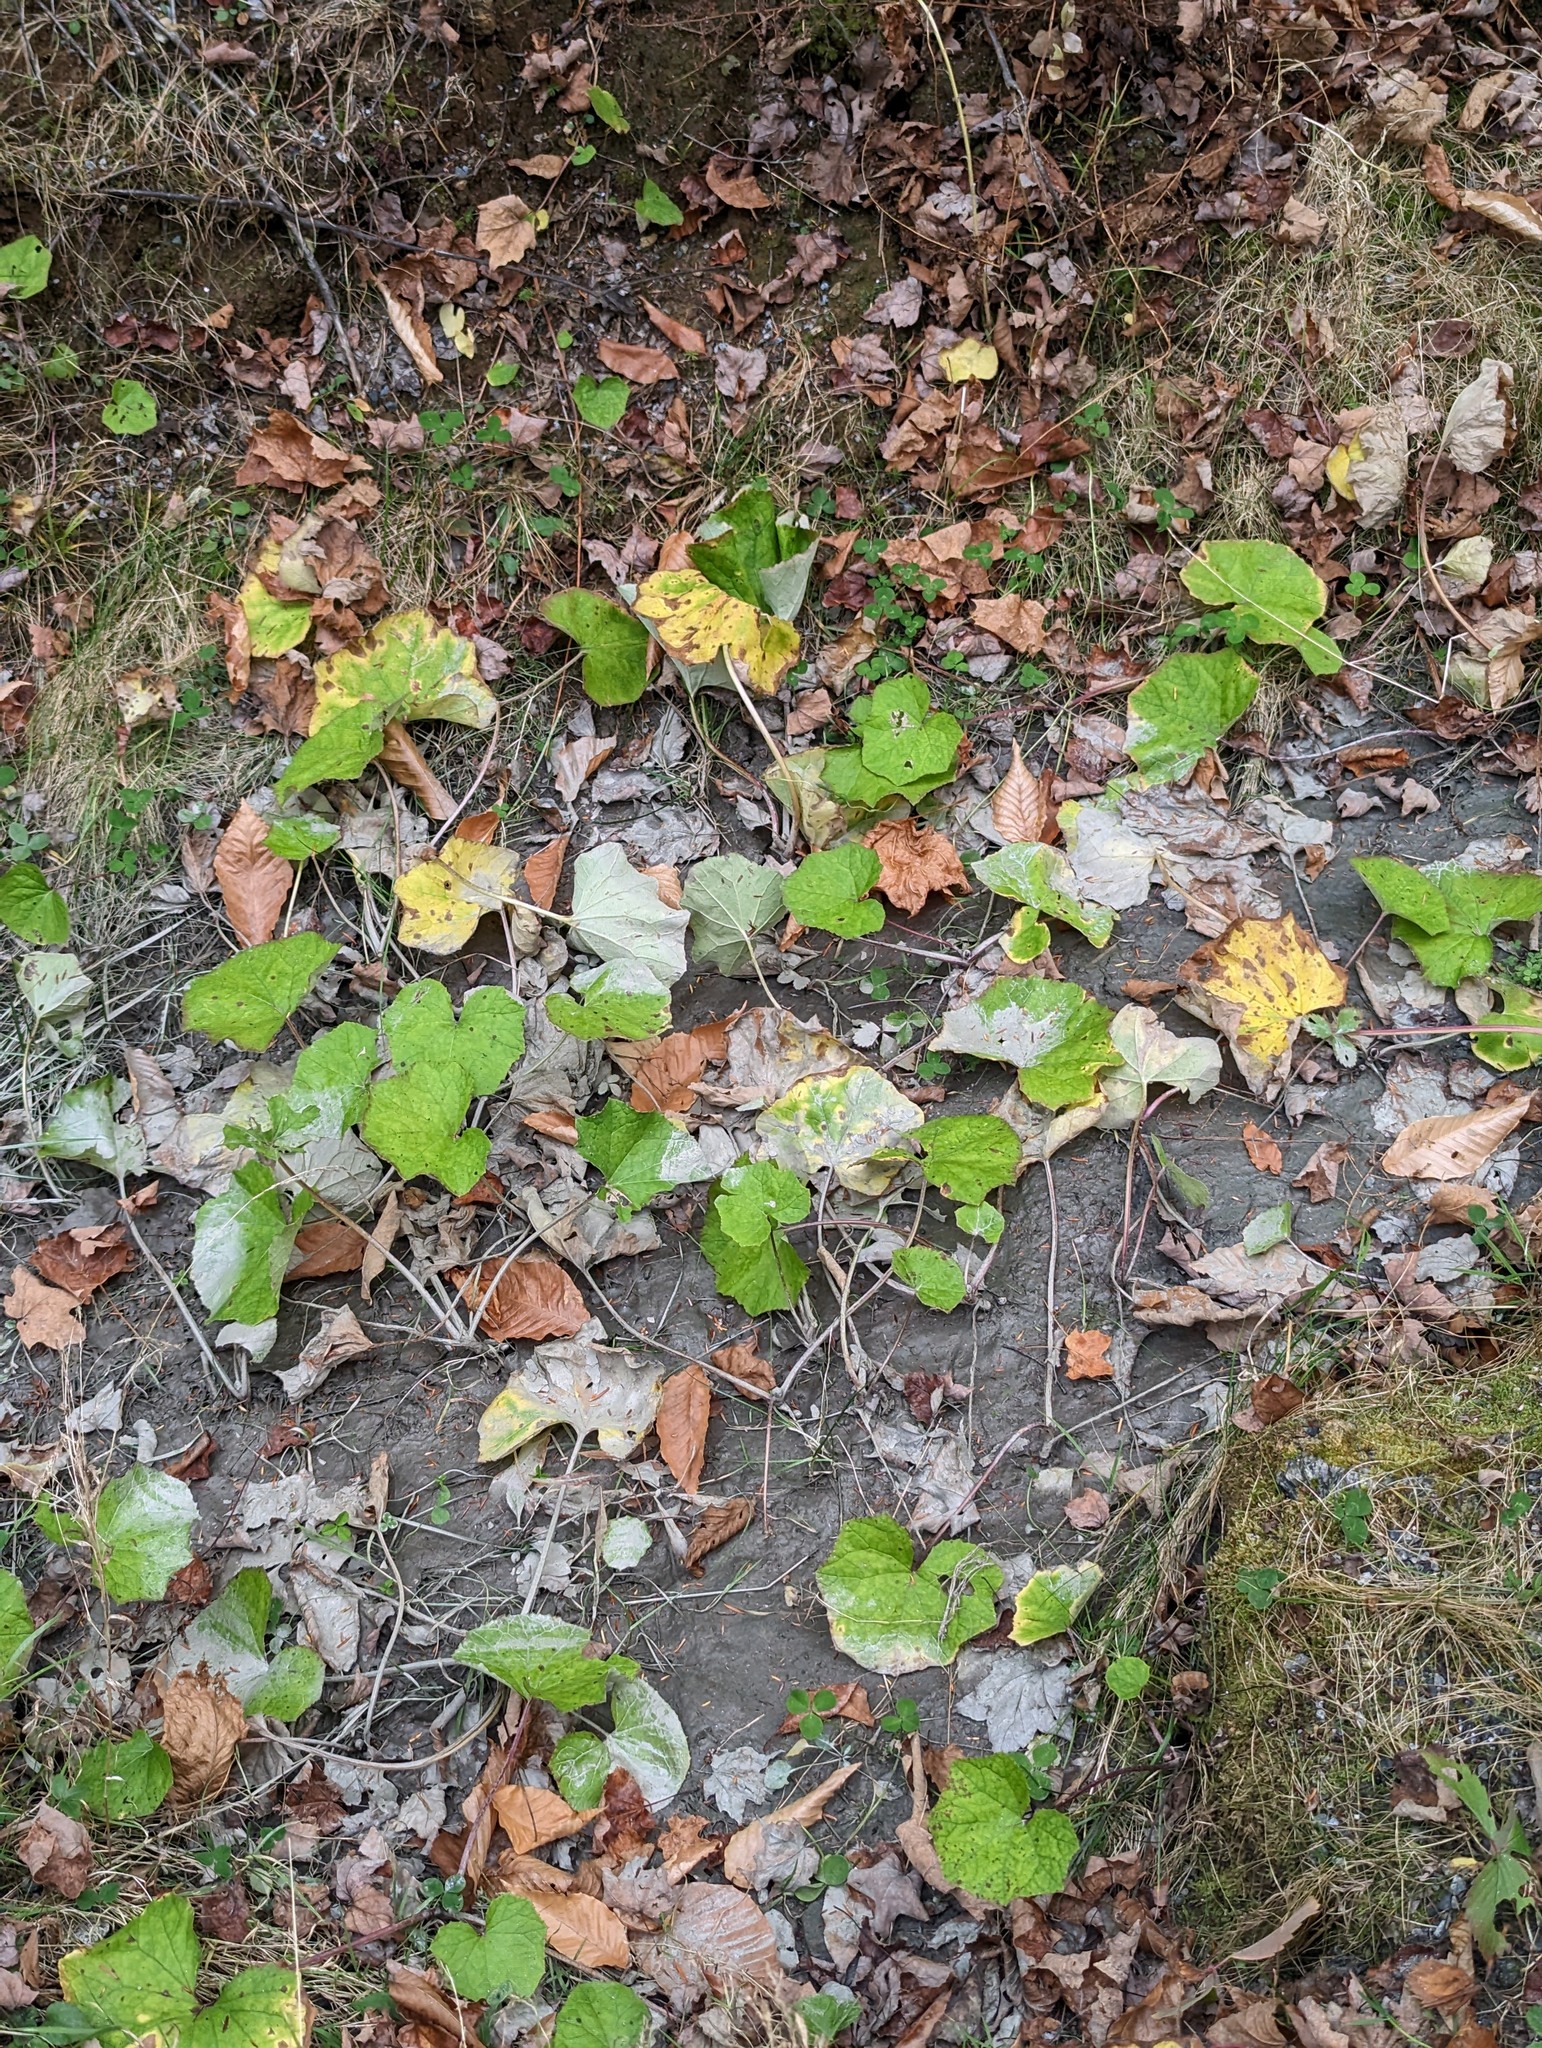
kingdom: Plantae
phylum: Tracheophyta
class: Magnoliopsida
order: Asterales
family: Asteraceae
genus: Tussilago
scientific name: Tussilago farfara
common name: Coltsfoot
